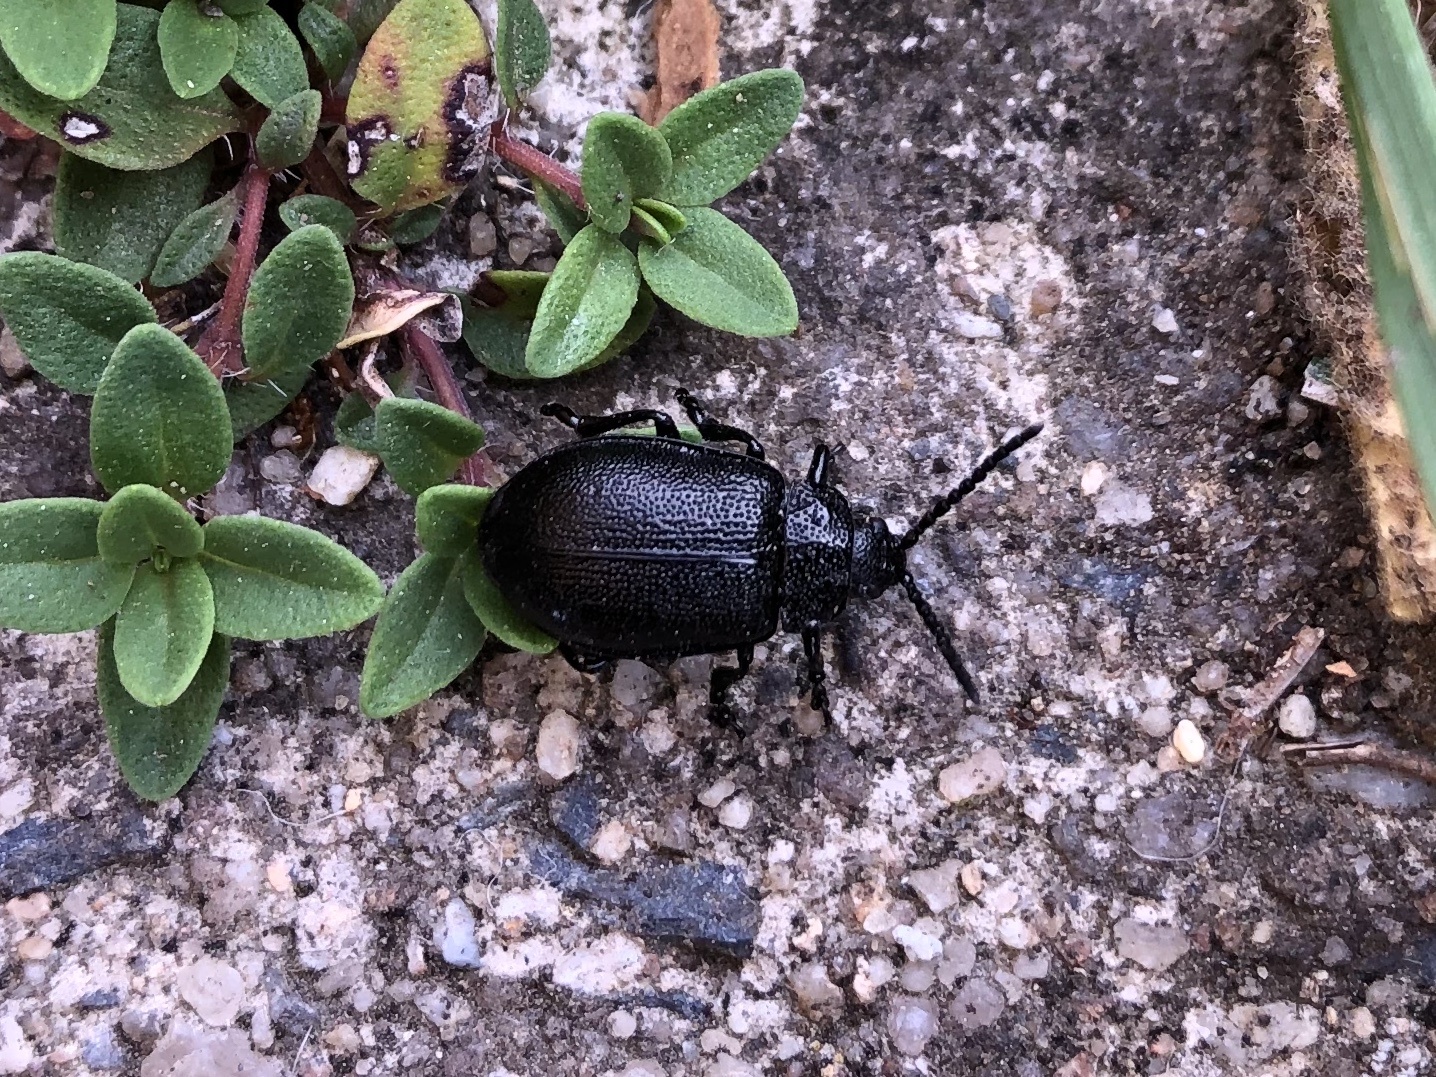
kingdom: Animalia
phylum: Arthropoda
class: Insecta
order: Coleoptera
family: Chrysomelidae
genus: Galeruca
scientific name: Galeruca tanaceti
